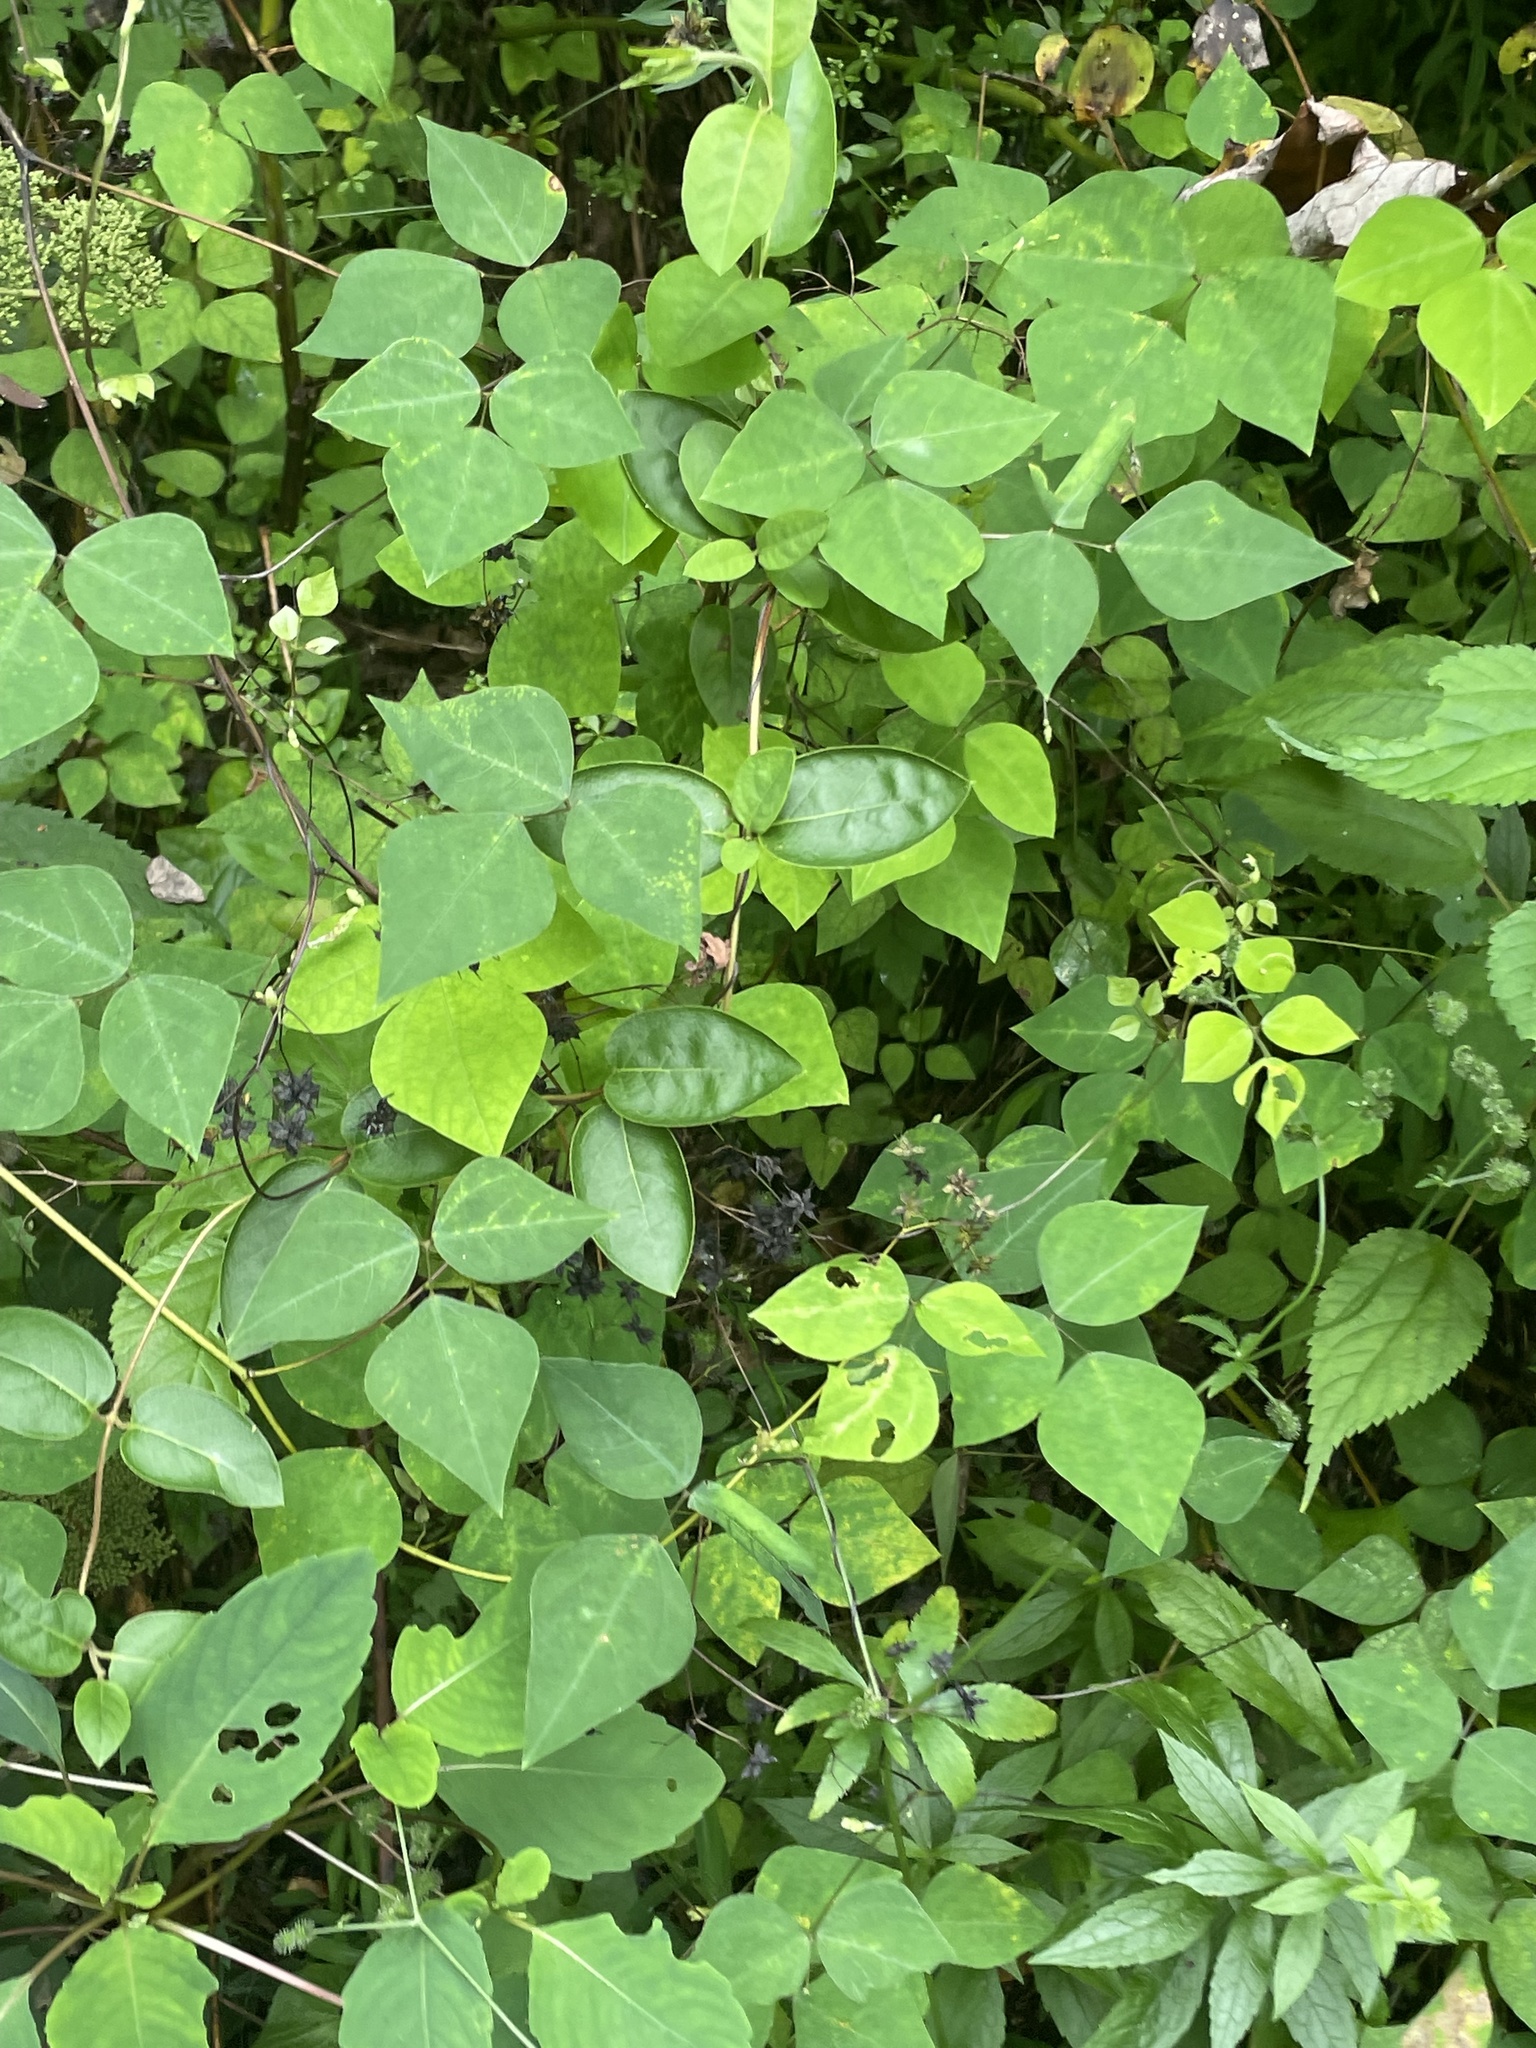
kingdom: Plantae
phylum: Tracheophyta
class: Magnoliopsida
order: Fabales
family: Fabaceae
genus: Amphicarpaea
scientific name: Amphicarpaea bracteata
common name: American hog peanut
